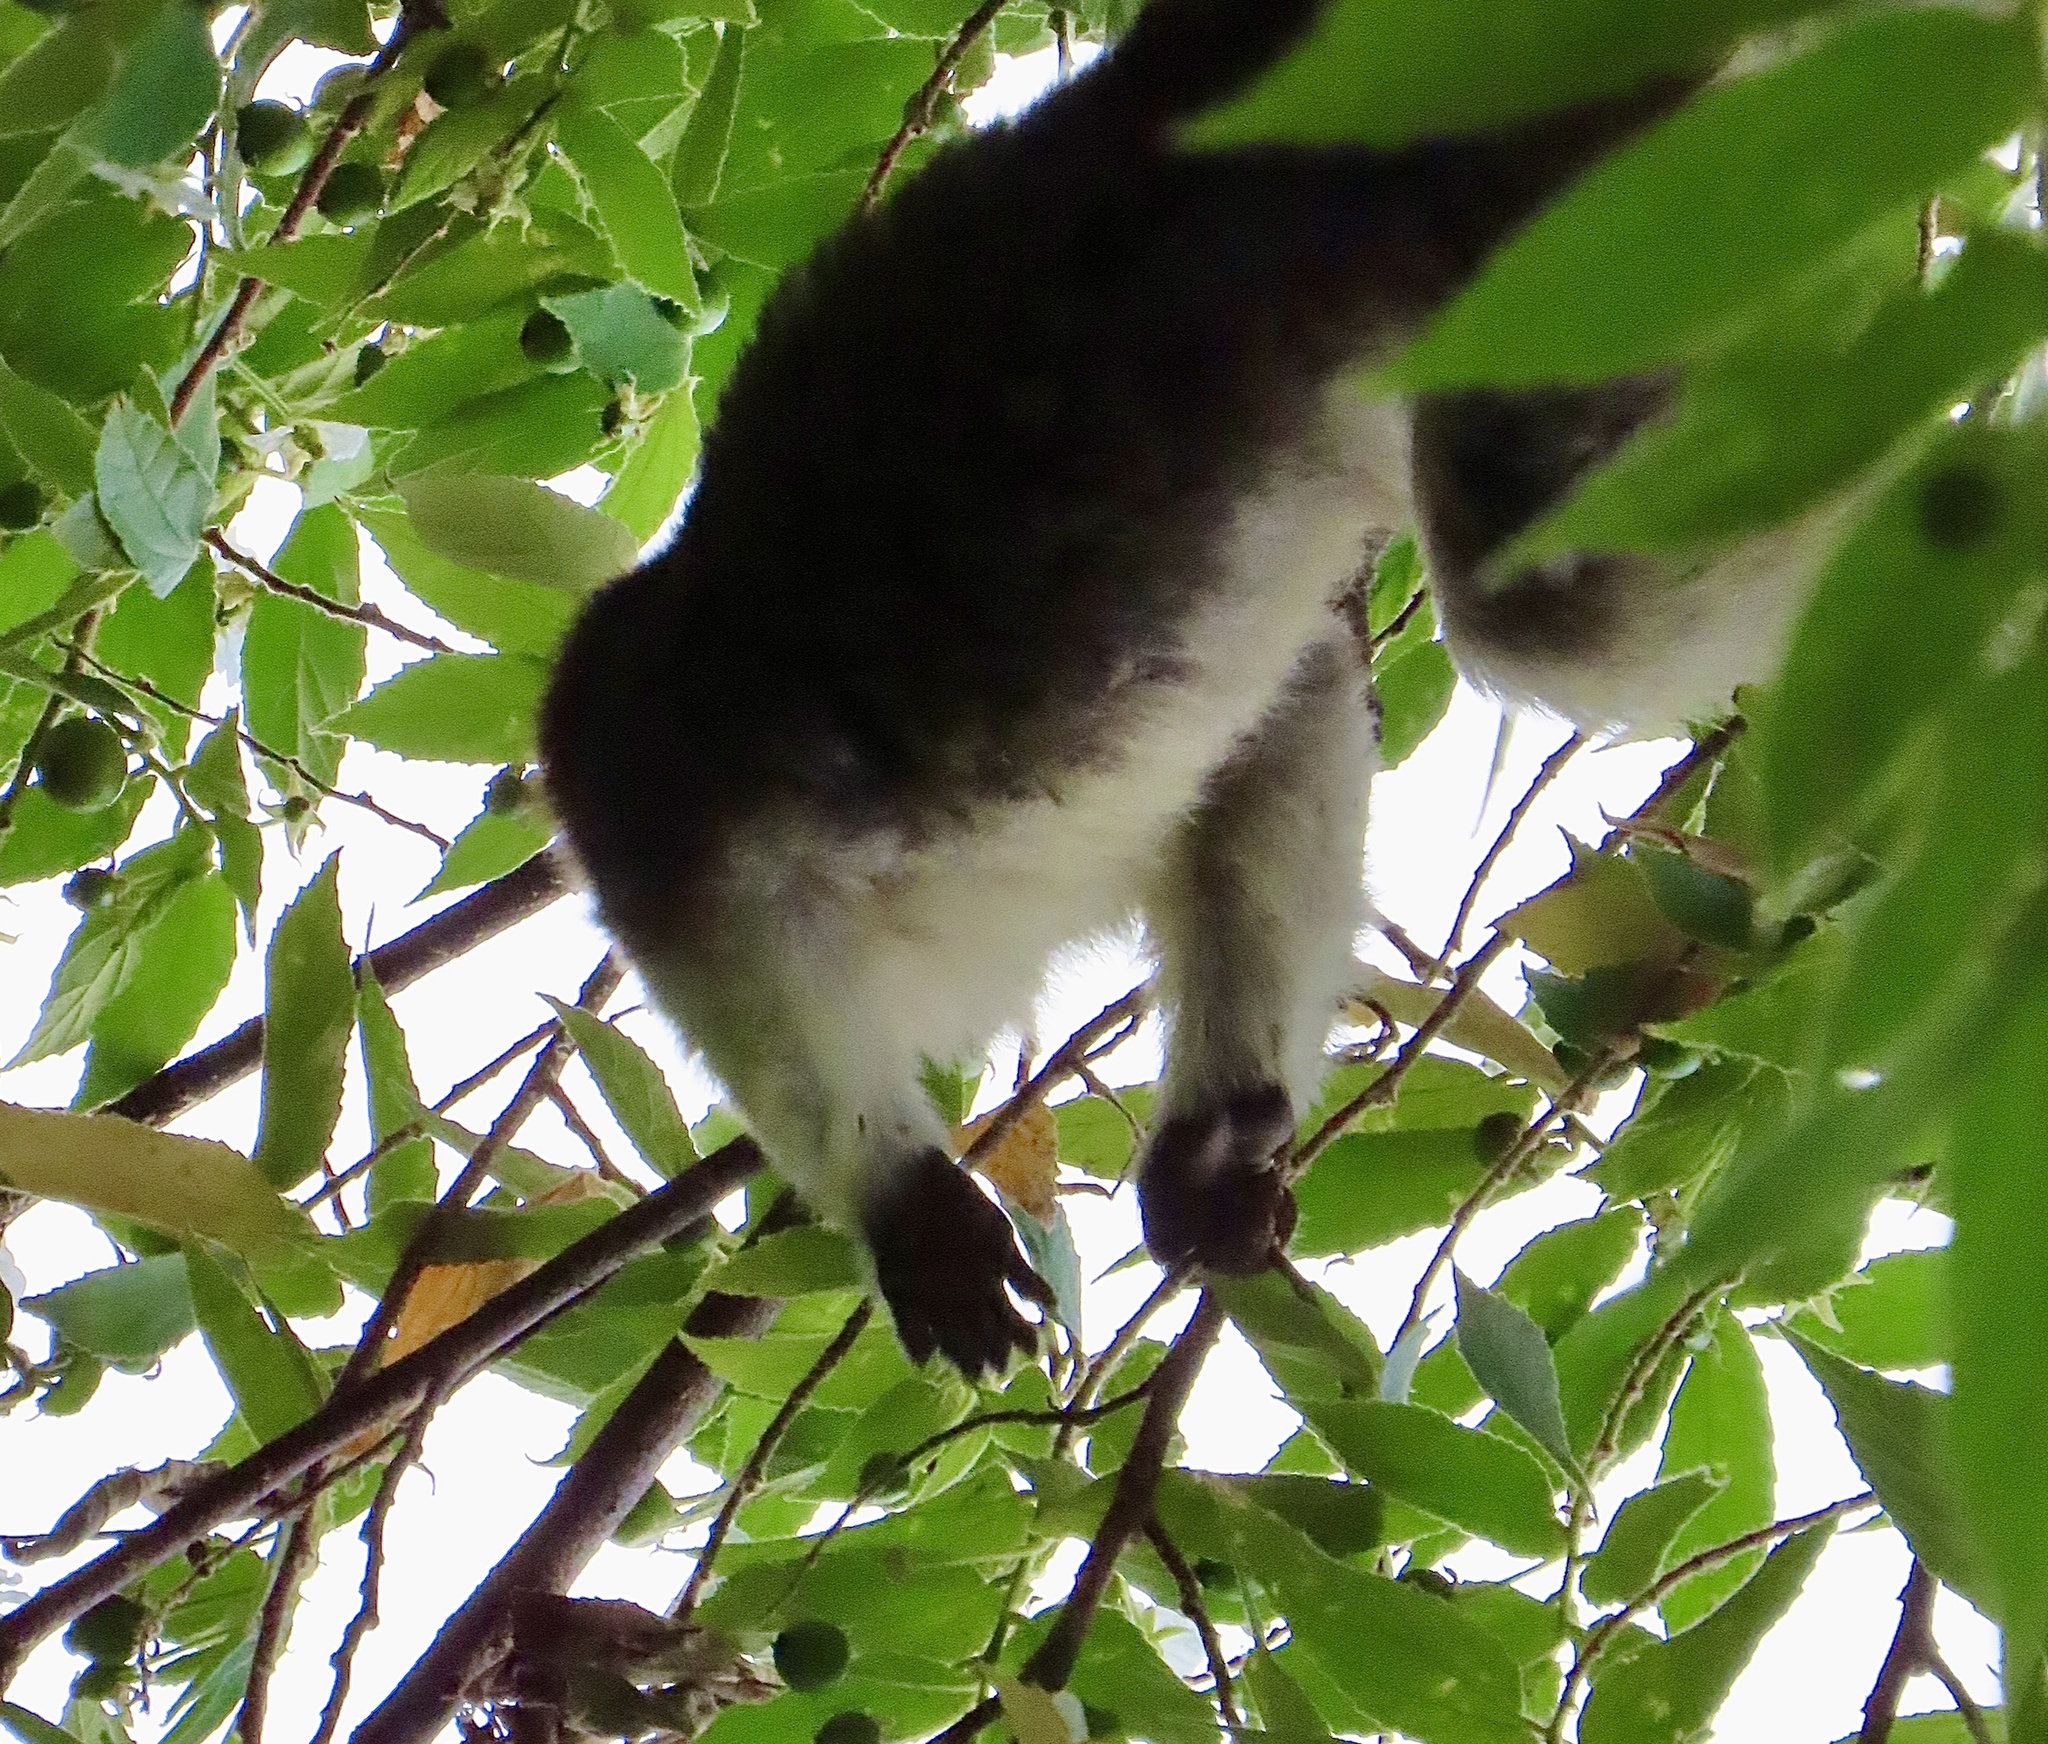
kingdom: Animalia
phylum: Chordata
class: Mammalia
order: Primates
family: Callitrichidae
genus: Saguinus
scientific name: Saguinus geoffroyi
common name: Geoffroy s tamarin
